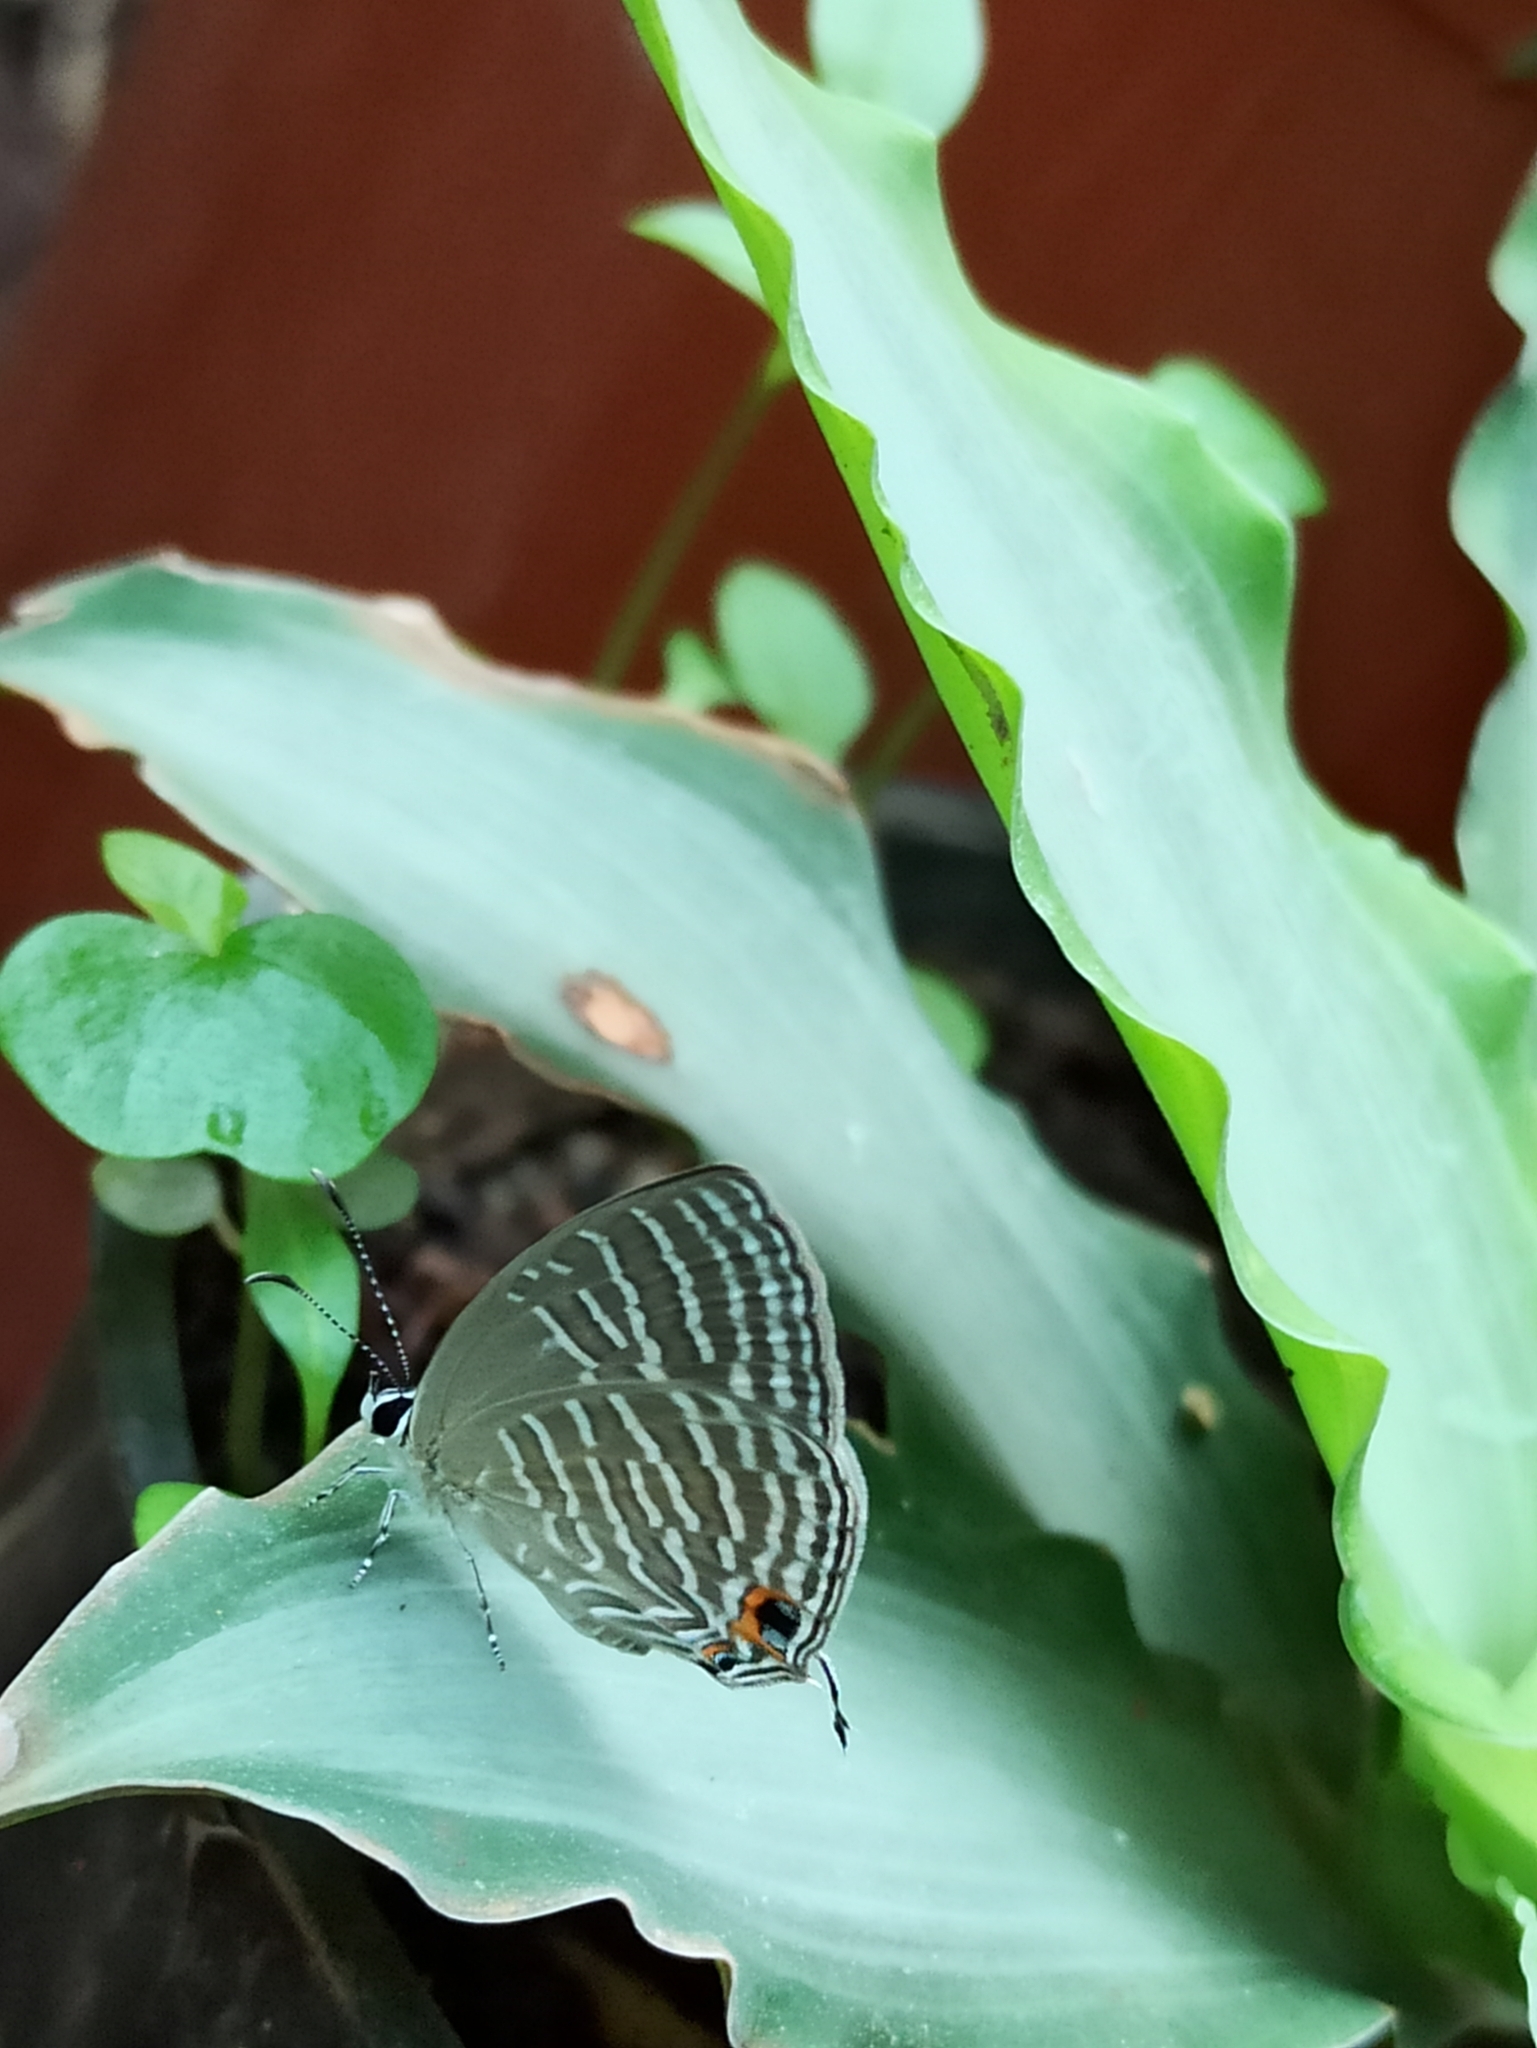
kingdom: Animalia
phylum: Arthropoda
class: Insecta
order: Lepidoptera
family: Lycaenidae
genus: Jamides
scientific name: Jamides celeno
